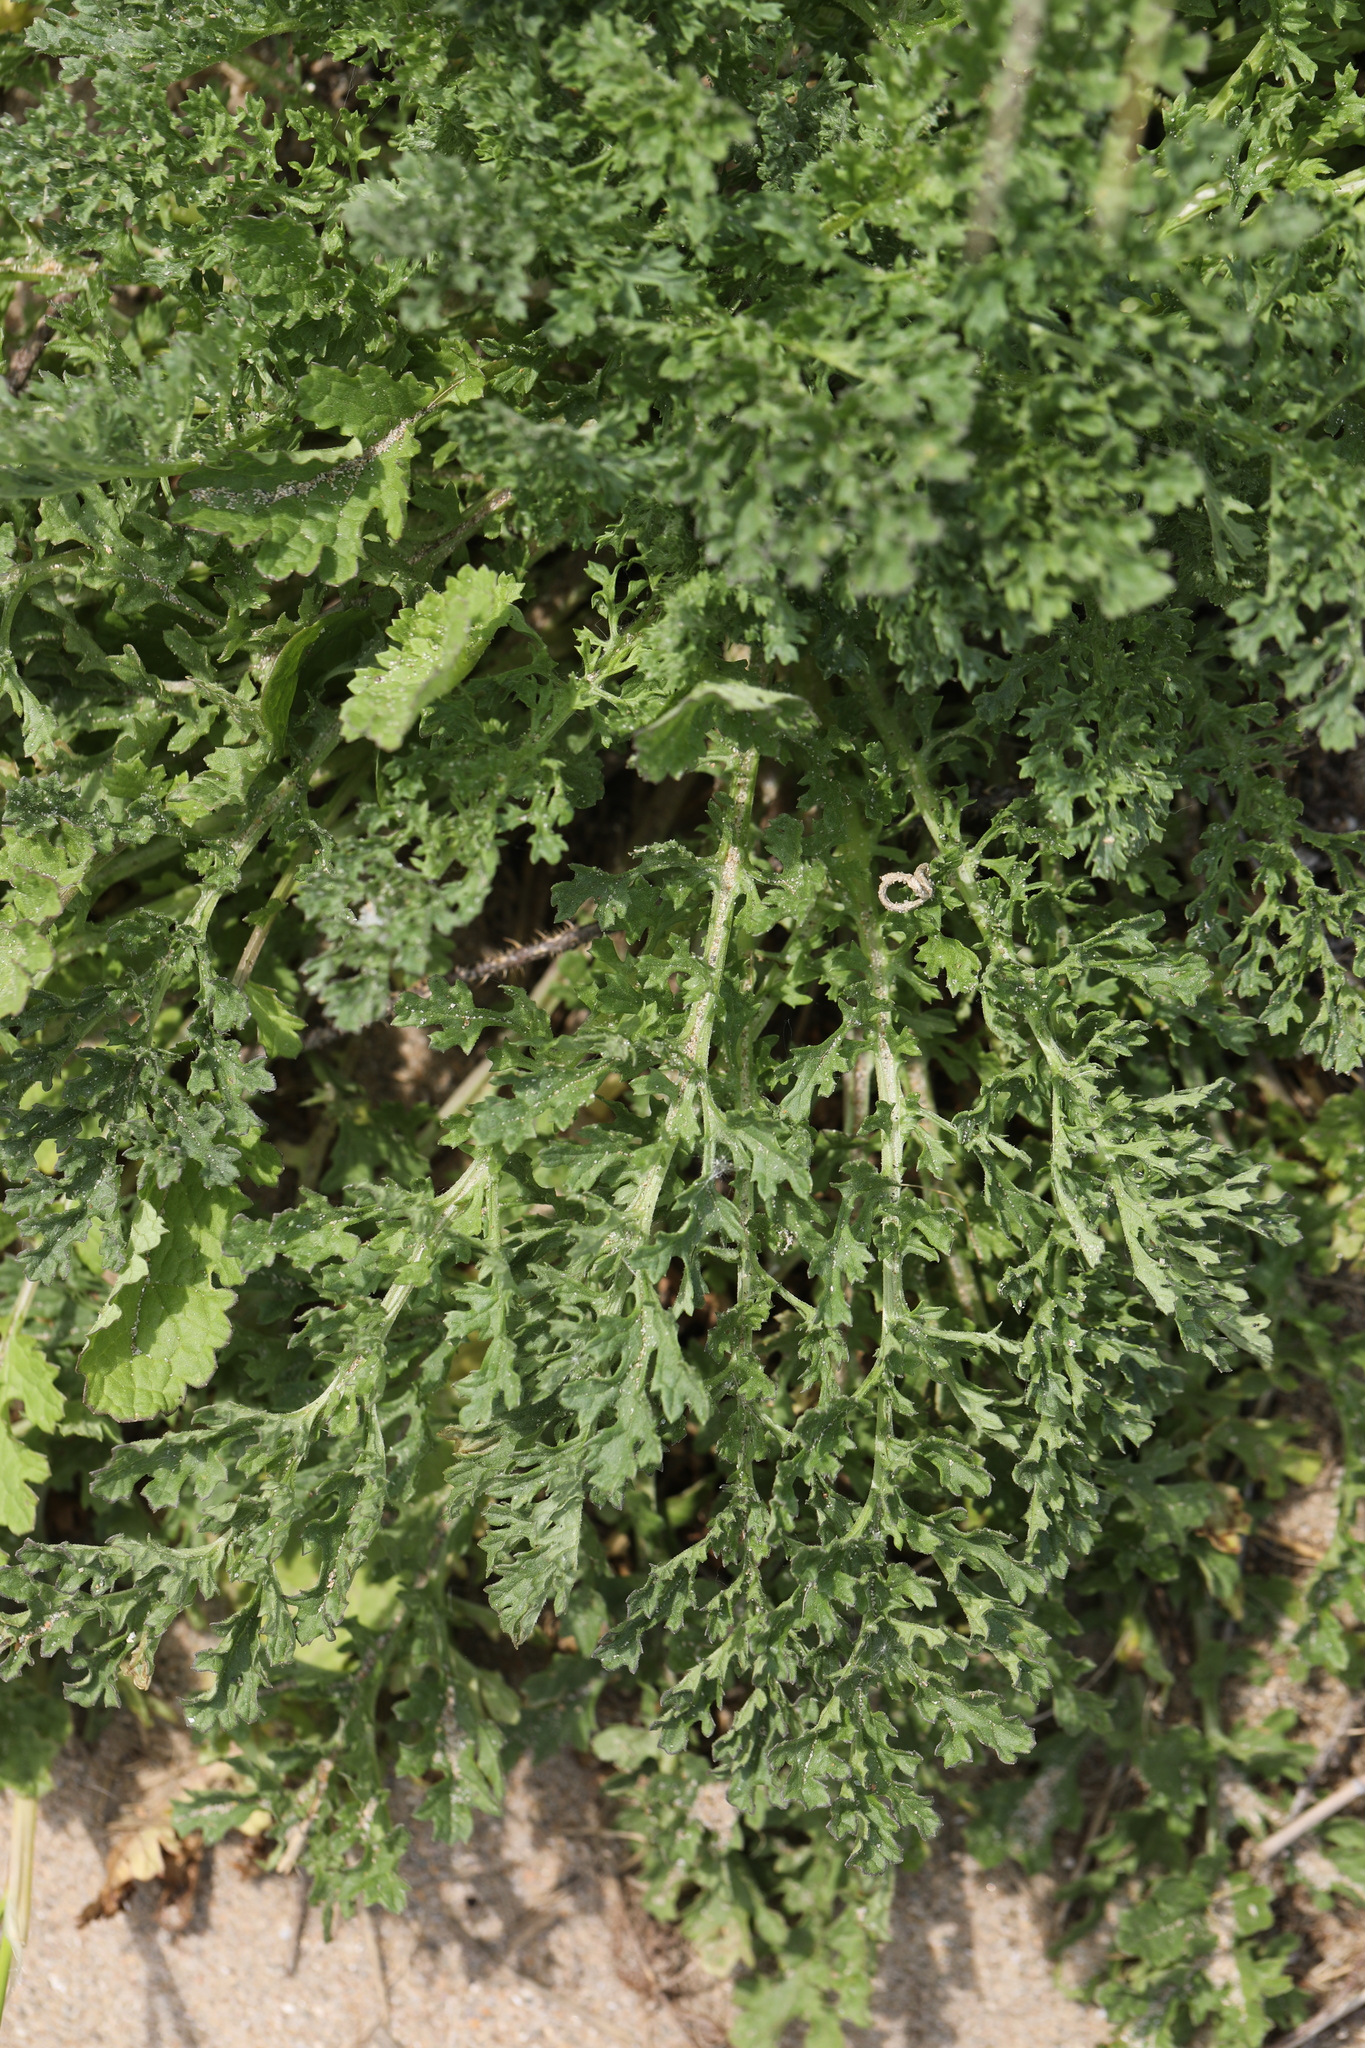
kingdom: Plantae
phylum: Tracheophyta
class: Magnoliopsida
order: Asterales
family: Asteraceae
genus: Jacobaea
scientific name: Jacobaea vulgaris
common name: Stinking willie
